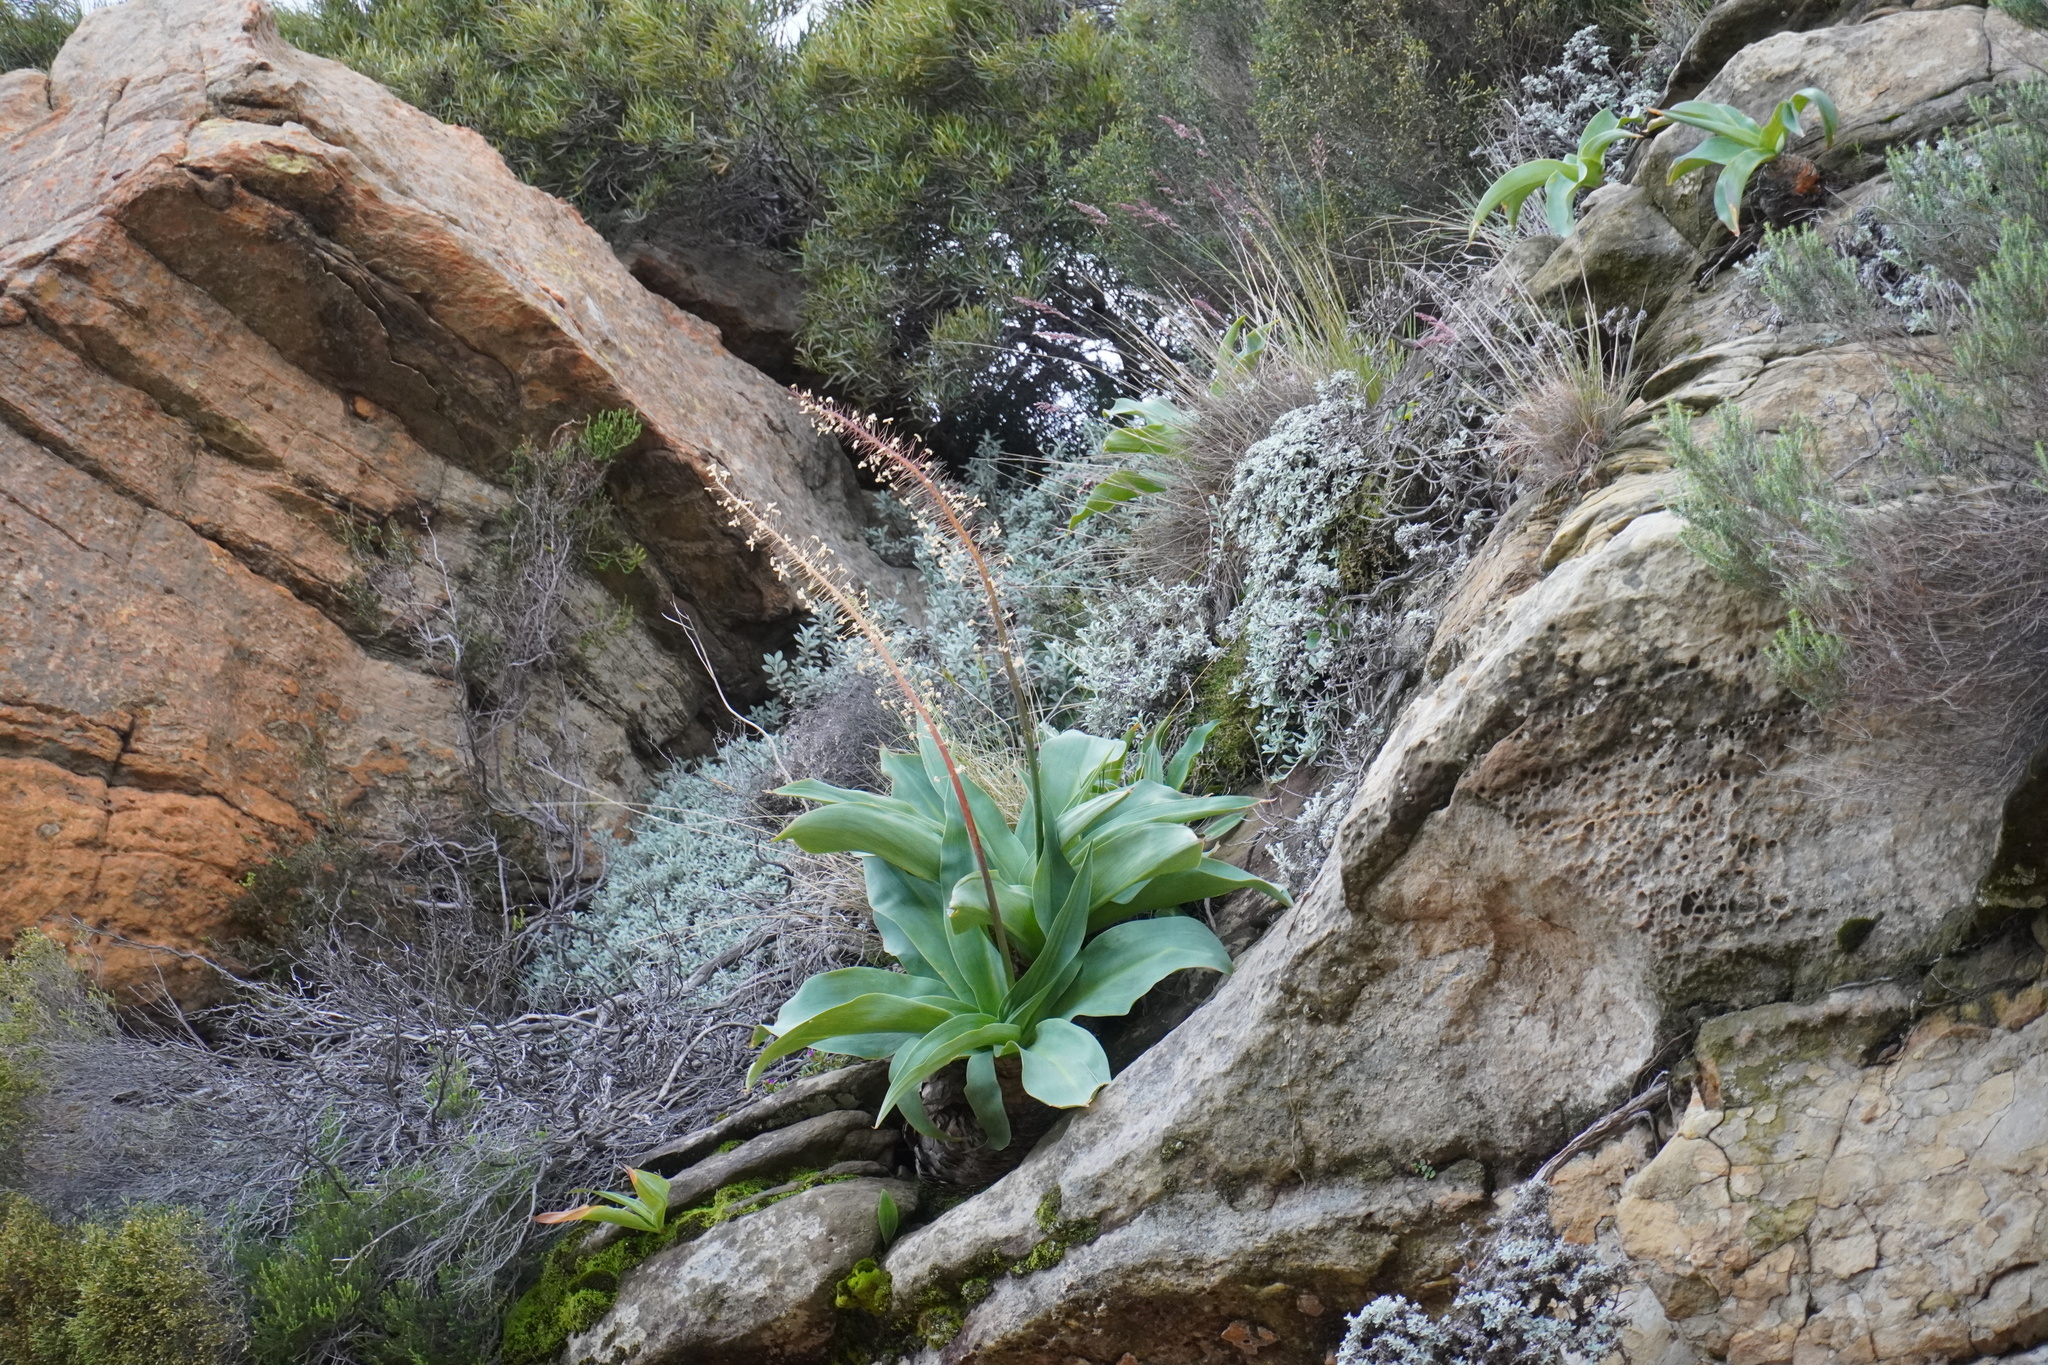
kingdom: Plantae
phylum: Tracheophyta
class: Liliopsida
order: Asparagales
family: Asparagaceae
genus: Merwilla
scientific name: Merwilla plumbea
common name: Blue-squill
